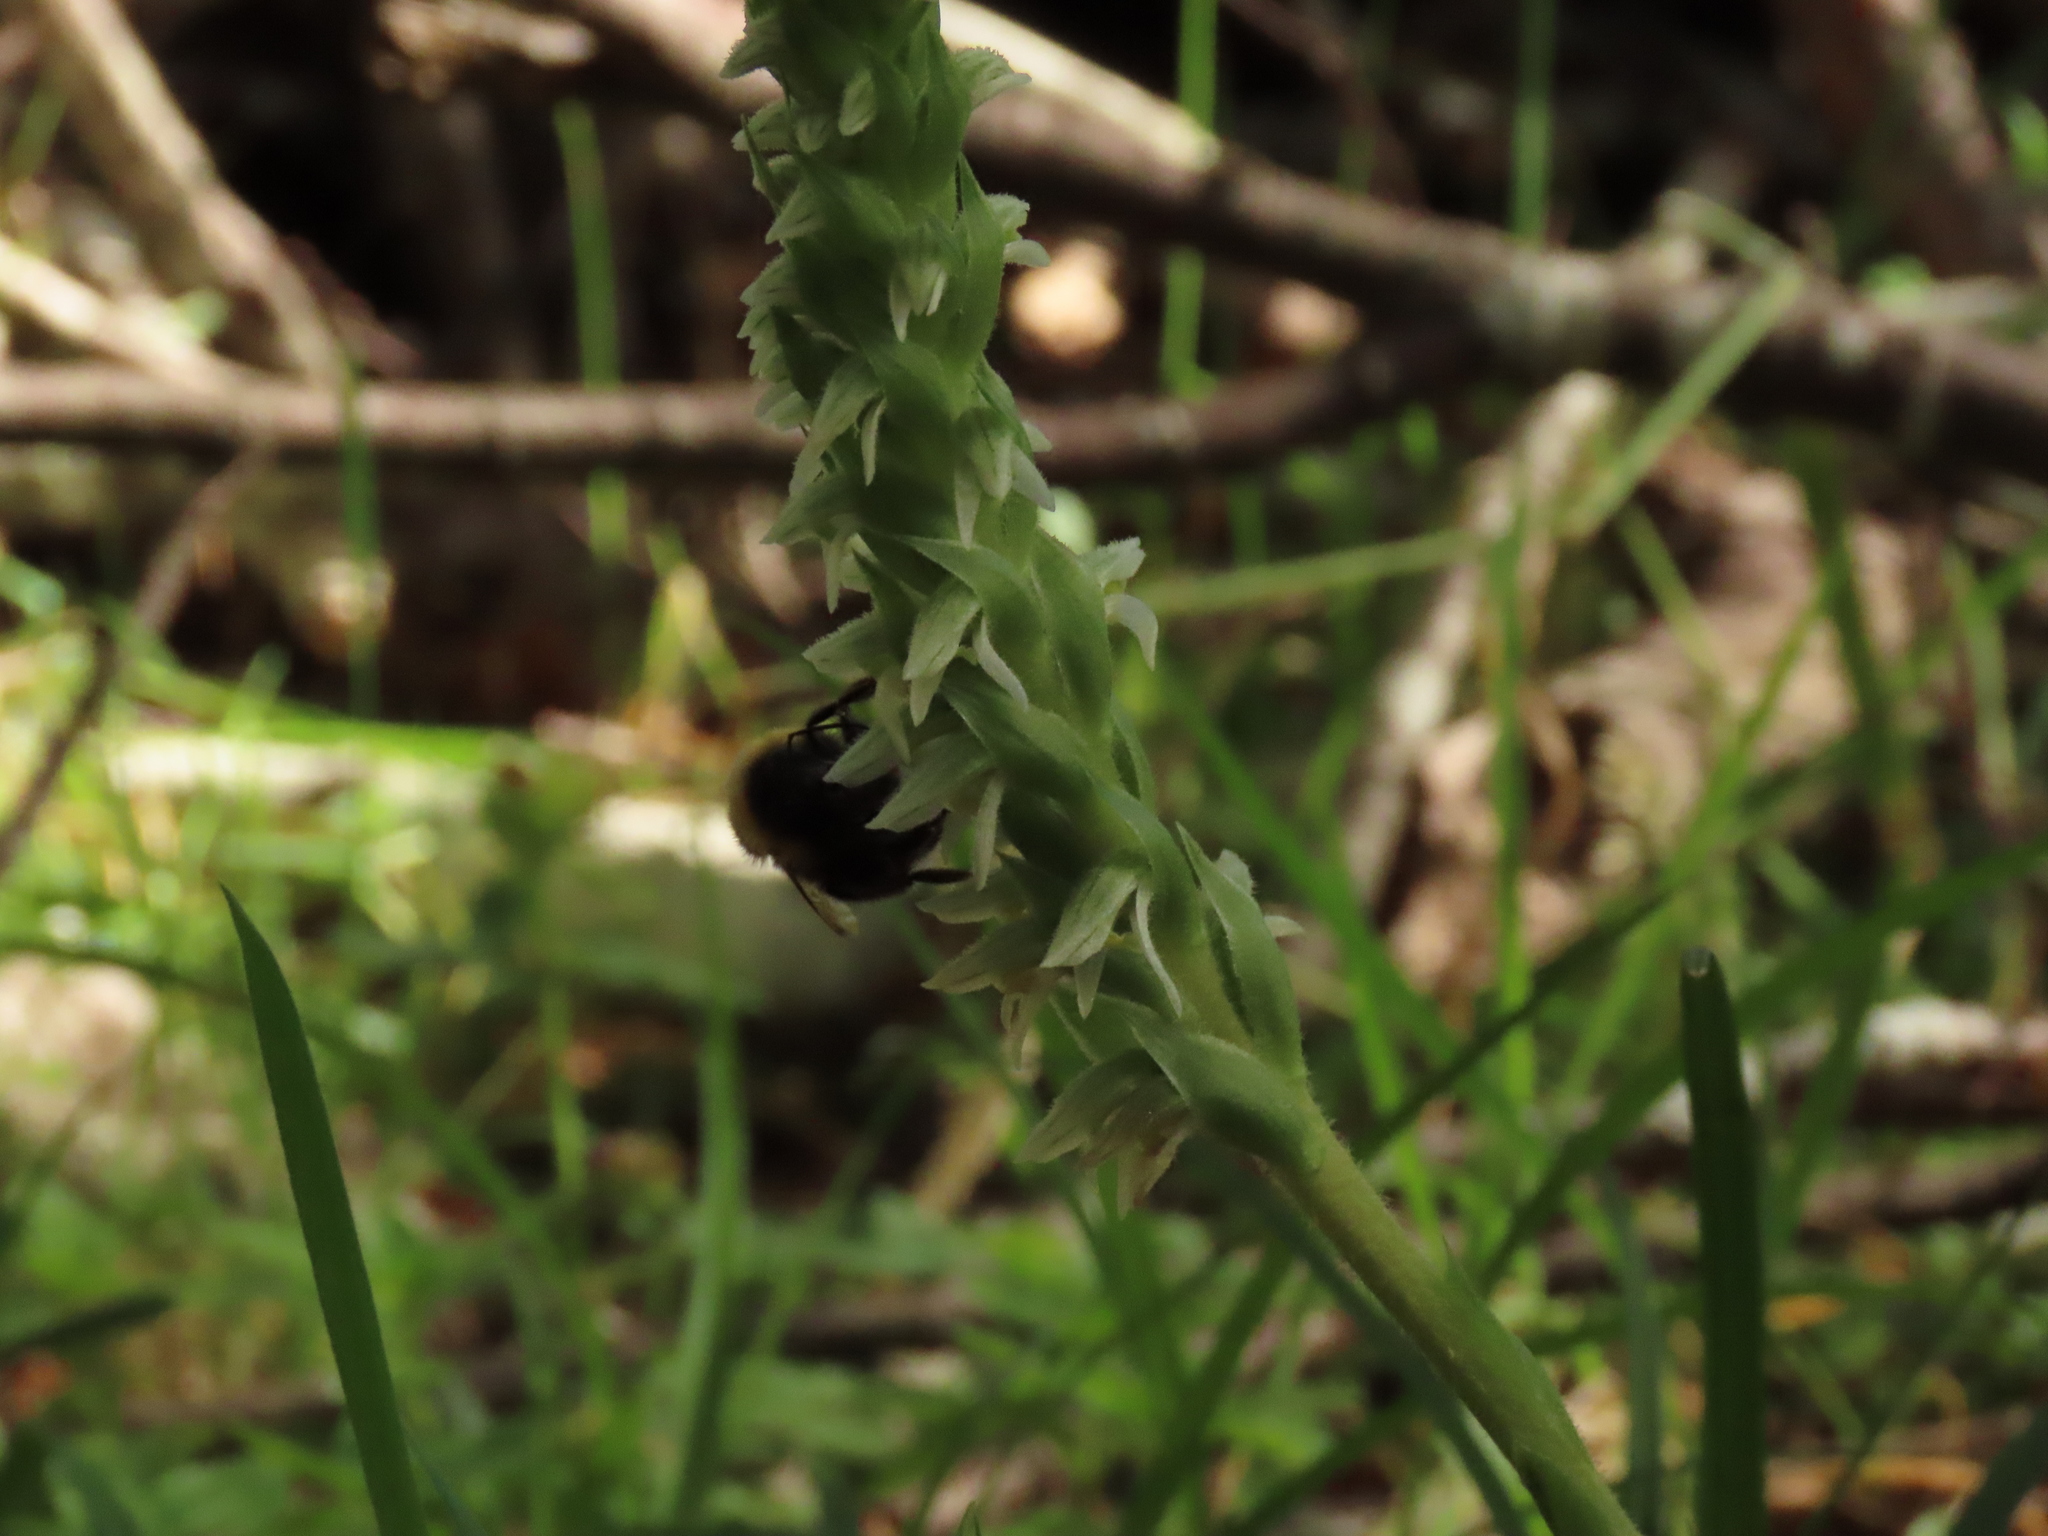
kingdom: Animalia
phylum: Arthropoda
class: Insecta
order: Hymenoptera
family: Apidae
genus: Bombus
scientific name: Bombus terrestris
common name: Buff-tailed bumblebee
